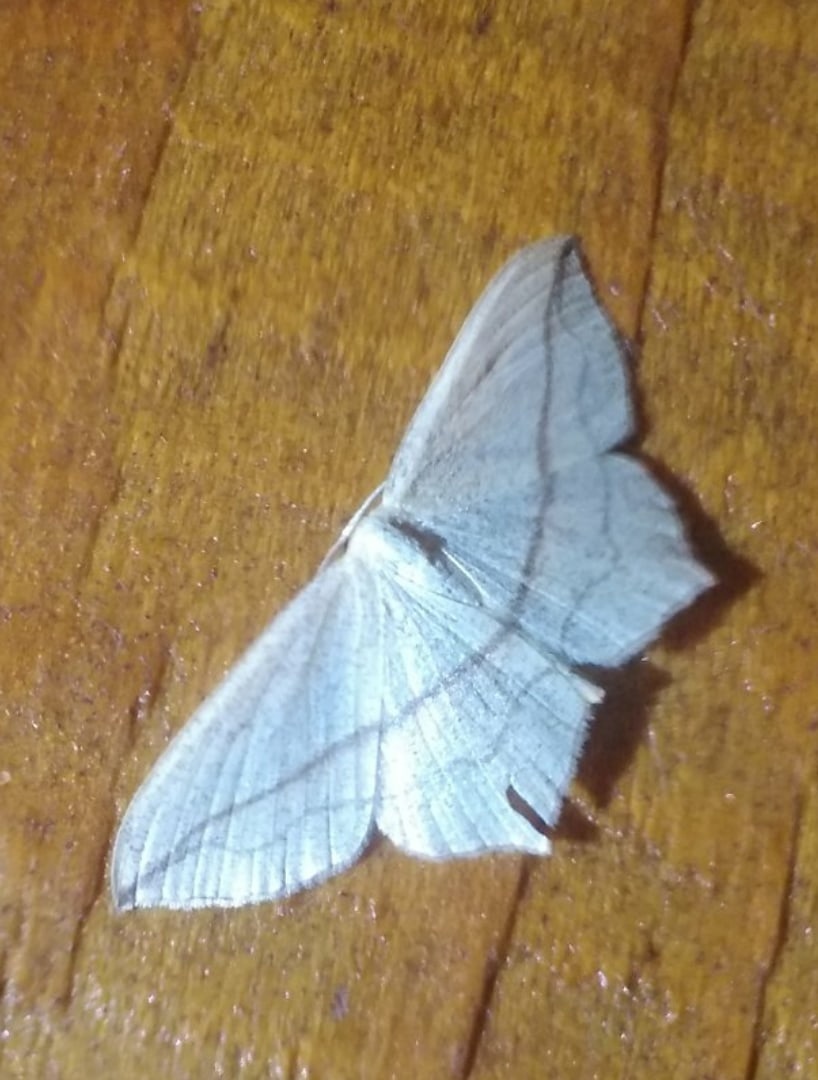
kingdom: Animalia
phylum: Arthropoda
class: Insecta
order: Lepidoptera
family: Geometridae
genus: Timandra
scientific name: Timandra comae
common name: Blood-vein
